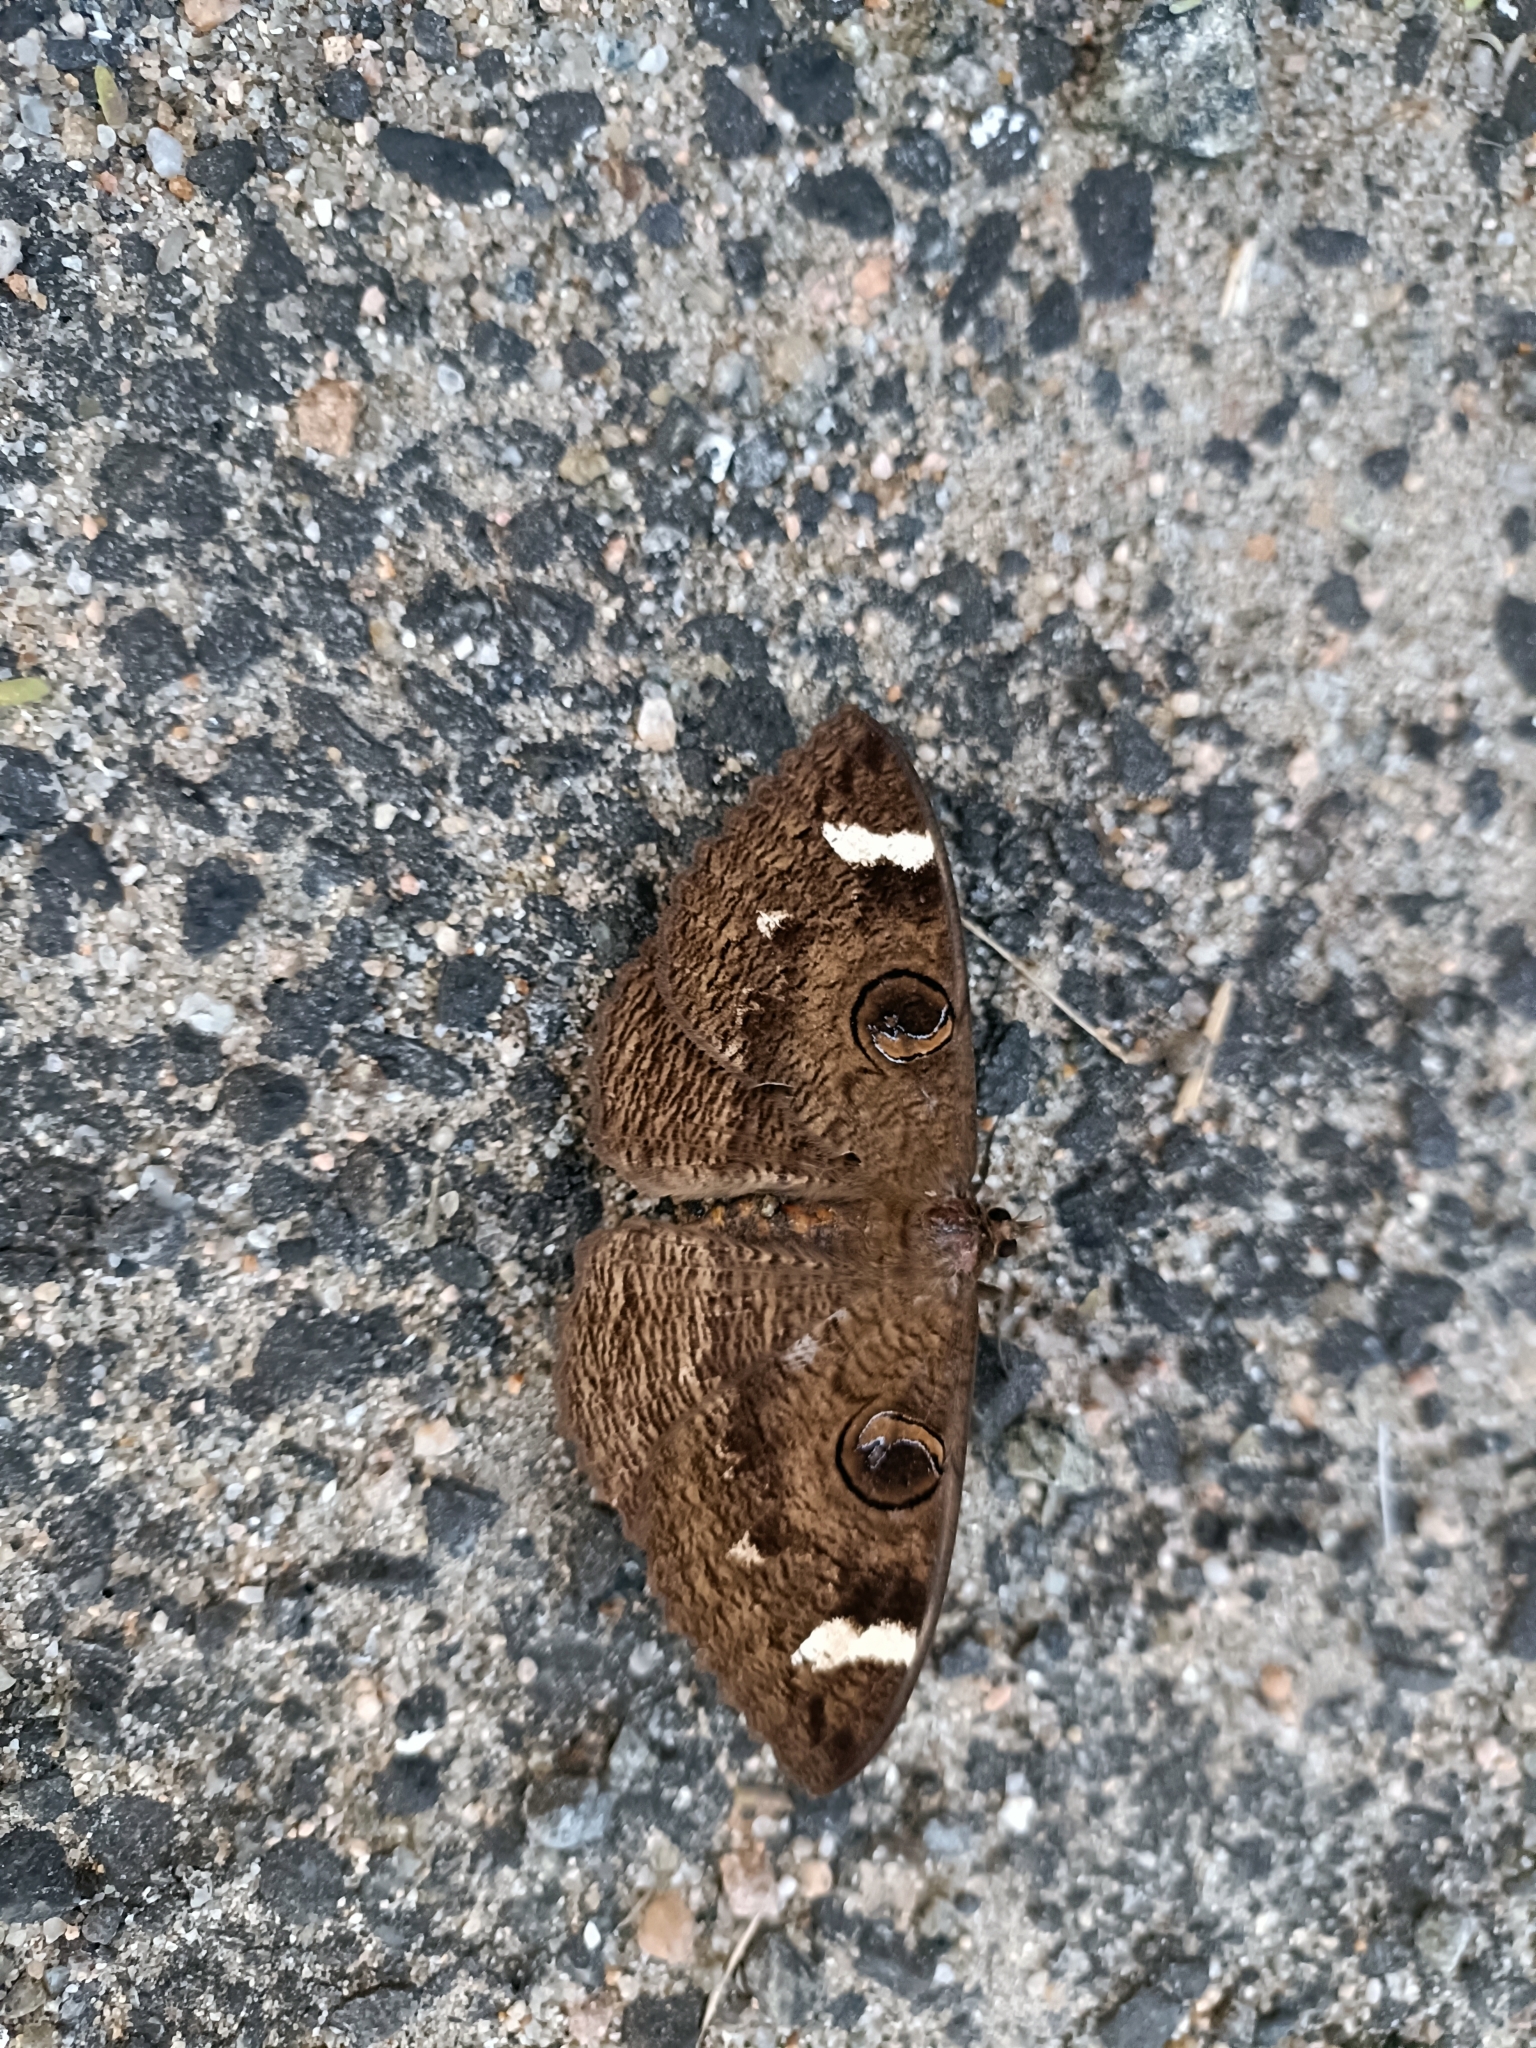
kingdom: Animalia
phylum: Arthropoda
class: Insecta
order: Lepidoptera
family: Erebidae
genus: Erebus
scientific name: Erebus hieroglyphica
